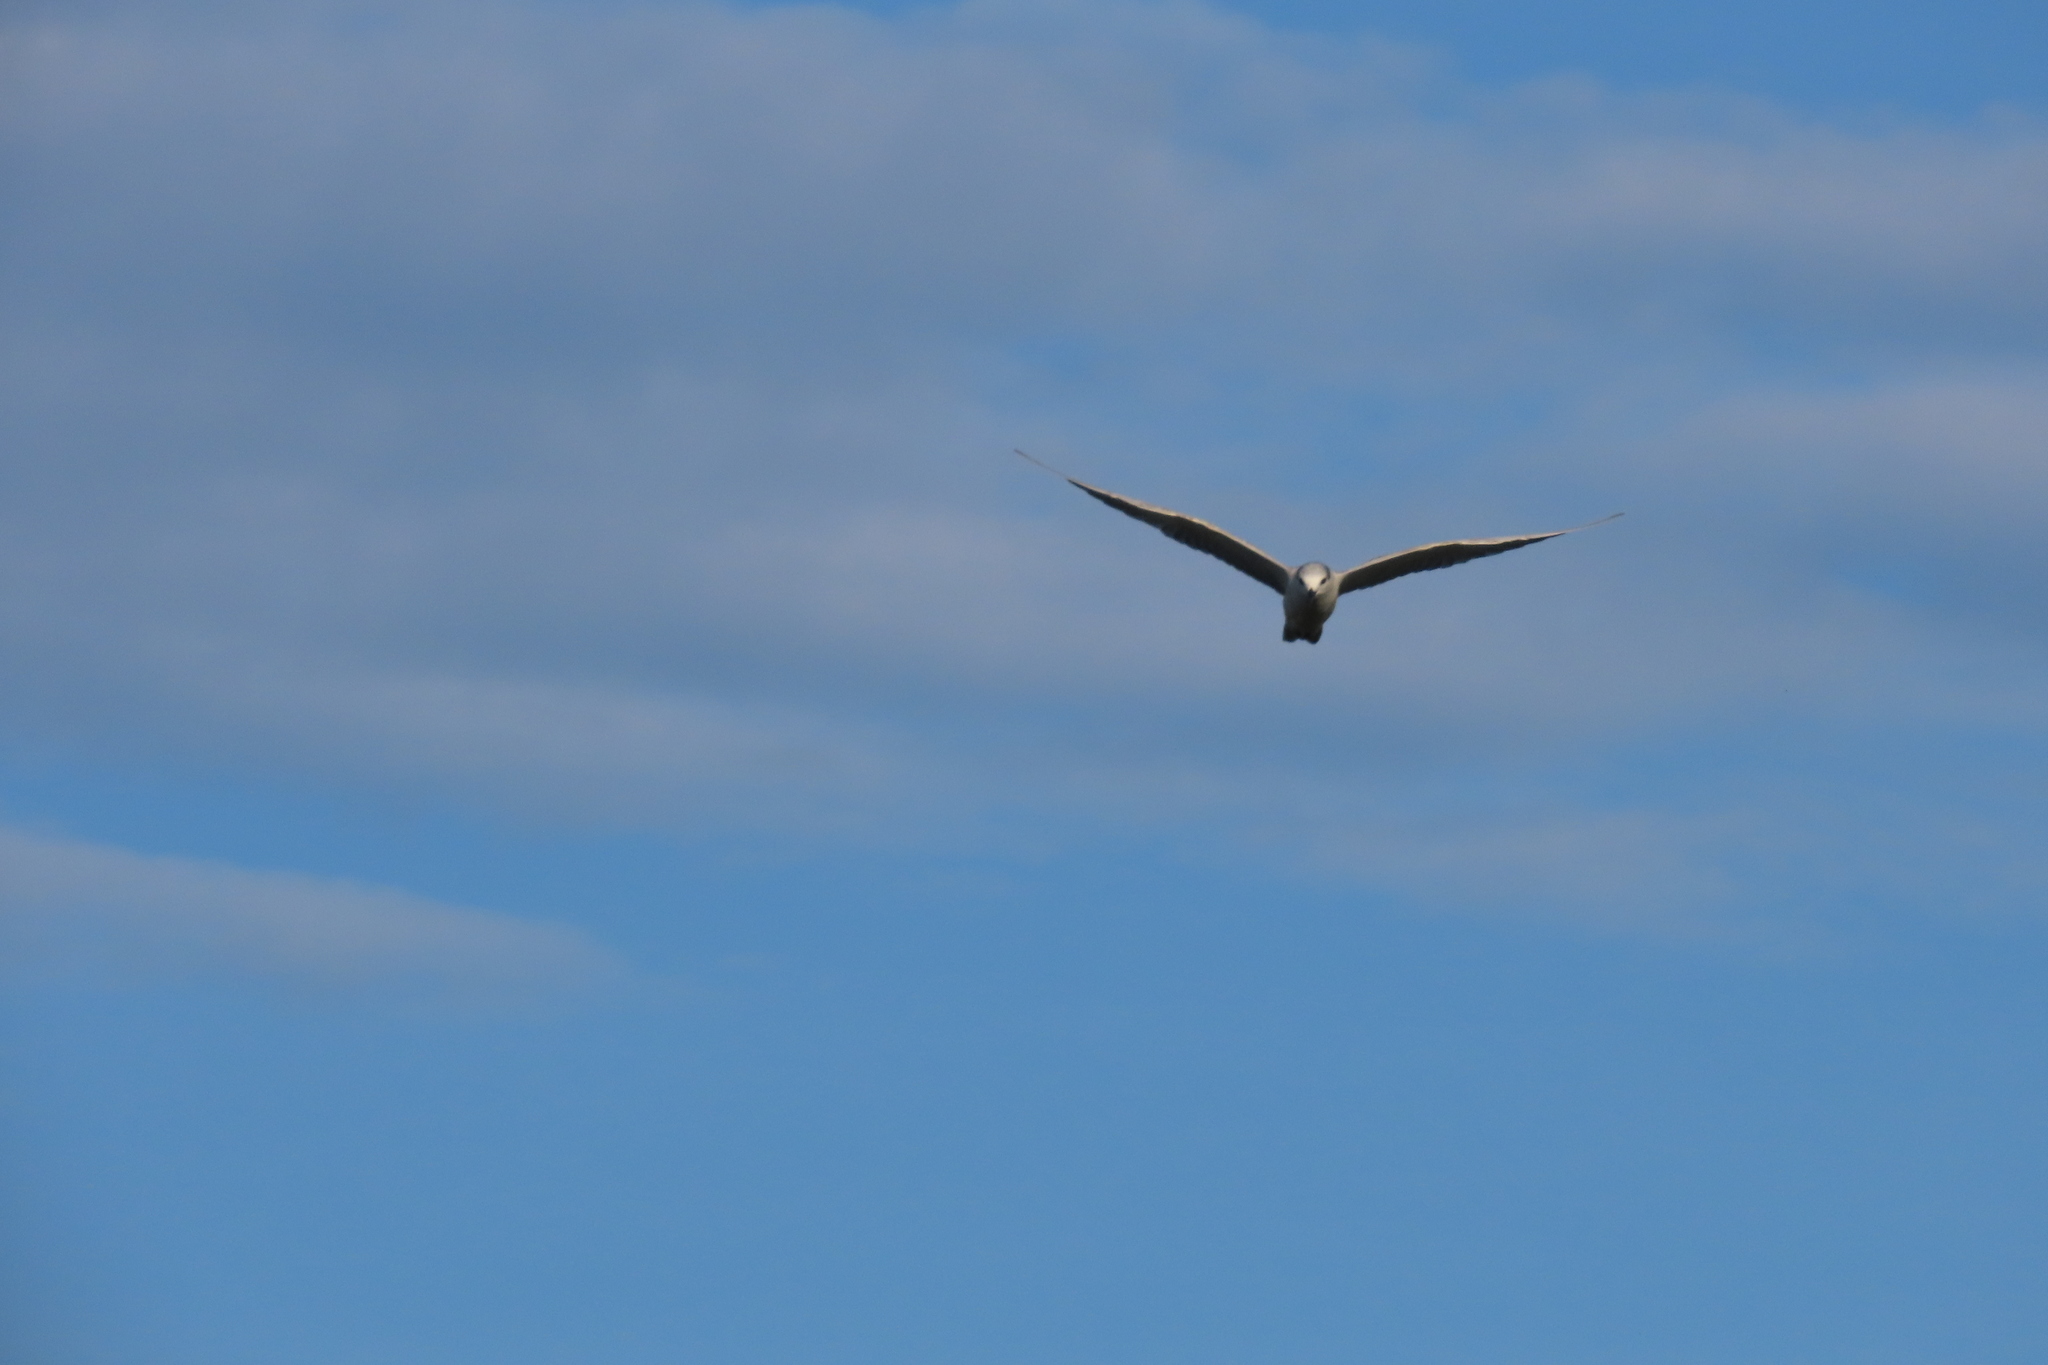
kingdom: Animalia
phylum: Chordata
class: Aves
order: Charadriiformes
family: Laridae
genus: Chlidonias
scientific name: Chlidonias hybrida
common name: Whiskered tern
